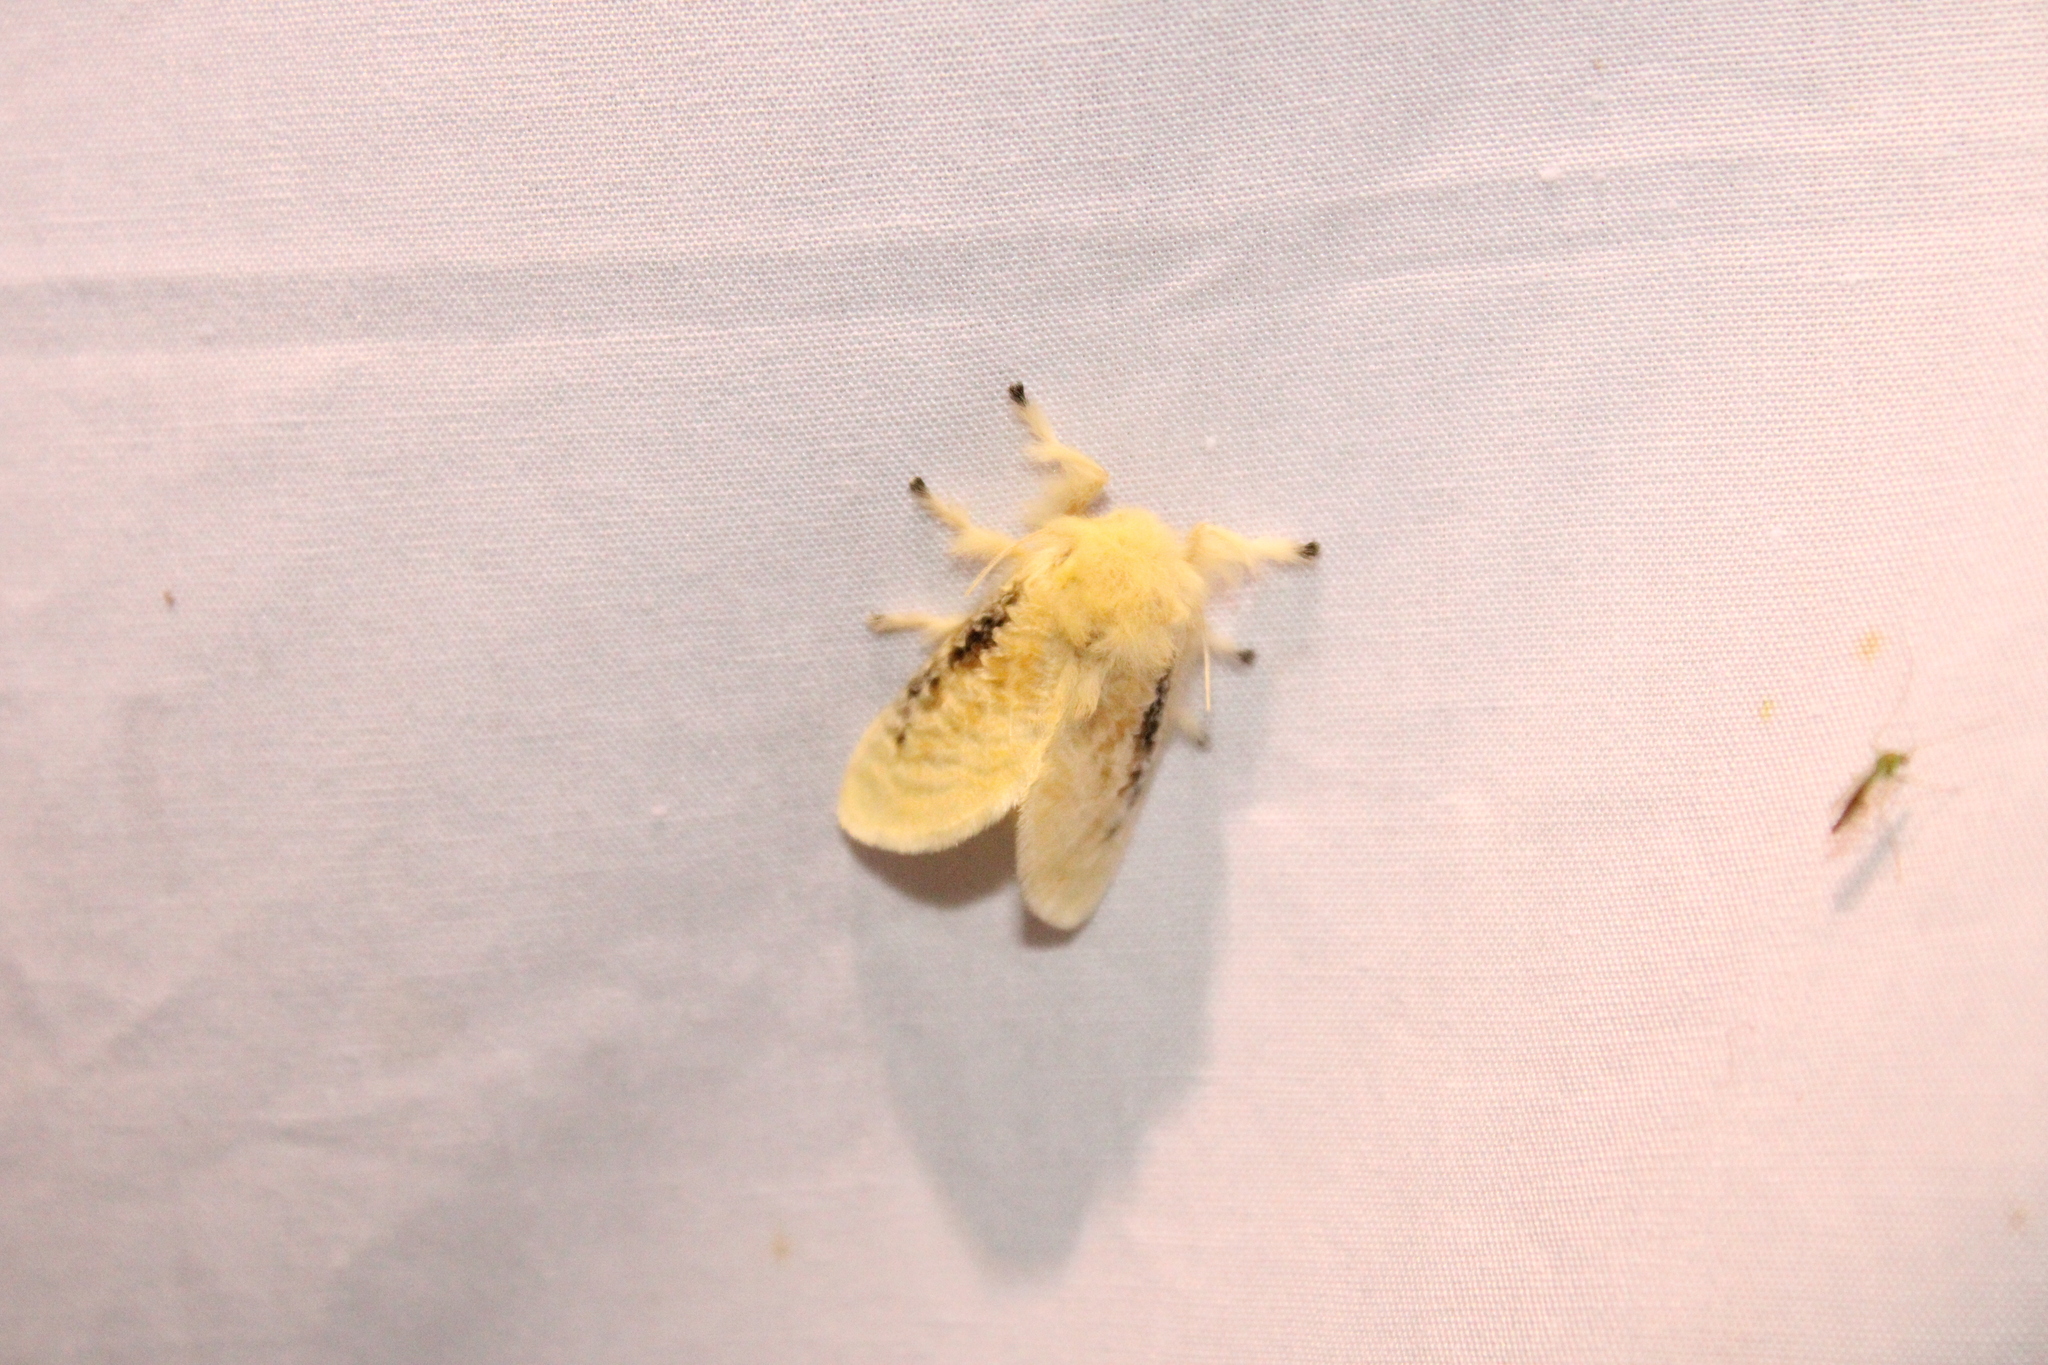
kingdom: Animalia
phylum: Arthropoda
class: Insecta
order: Lepidoptera
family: Megalopygidae
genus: Megalopyge
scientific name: Megalopyge crispata
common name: Black-waved flannel moth
